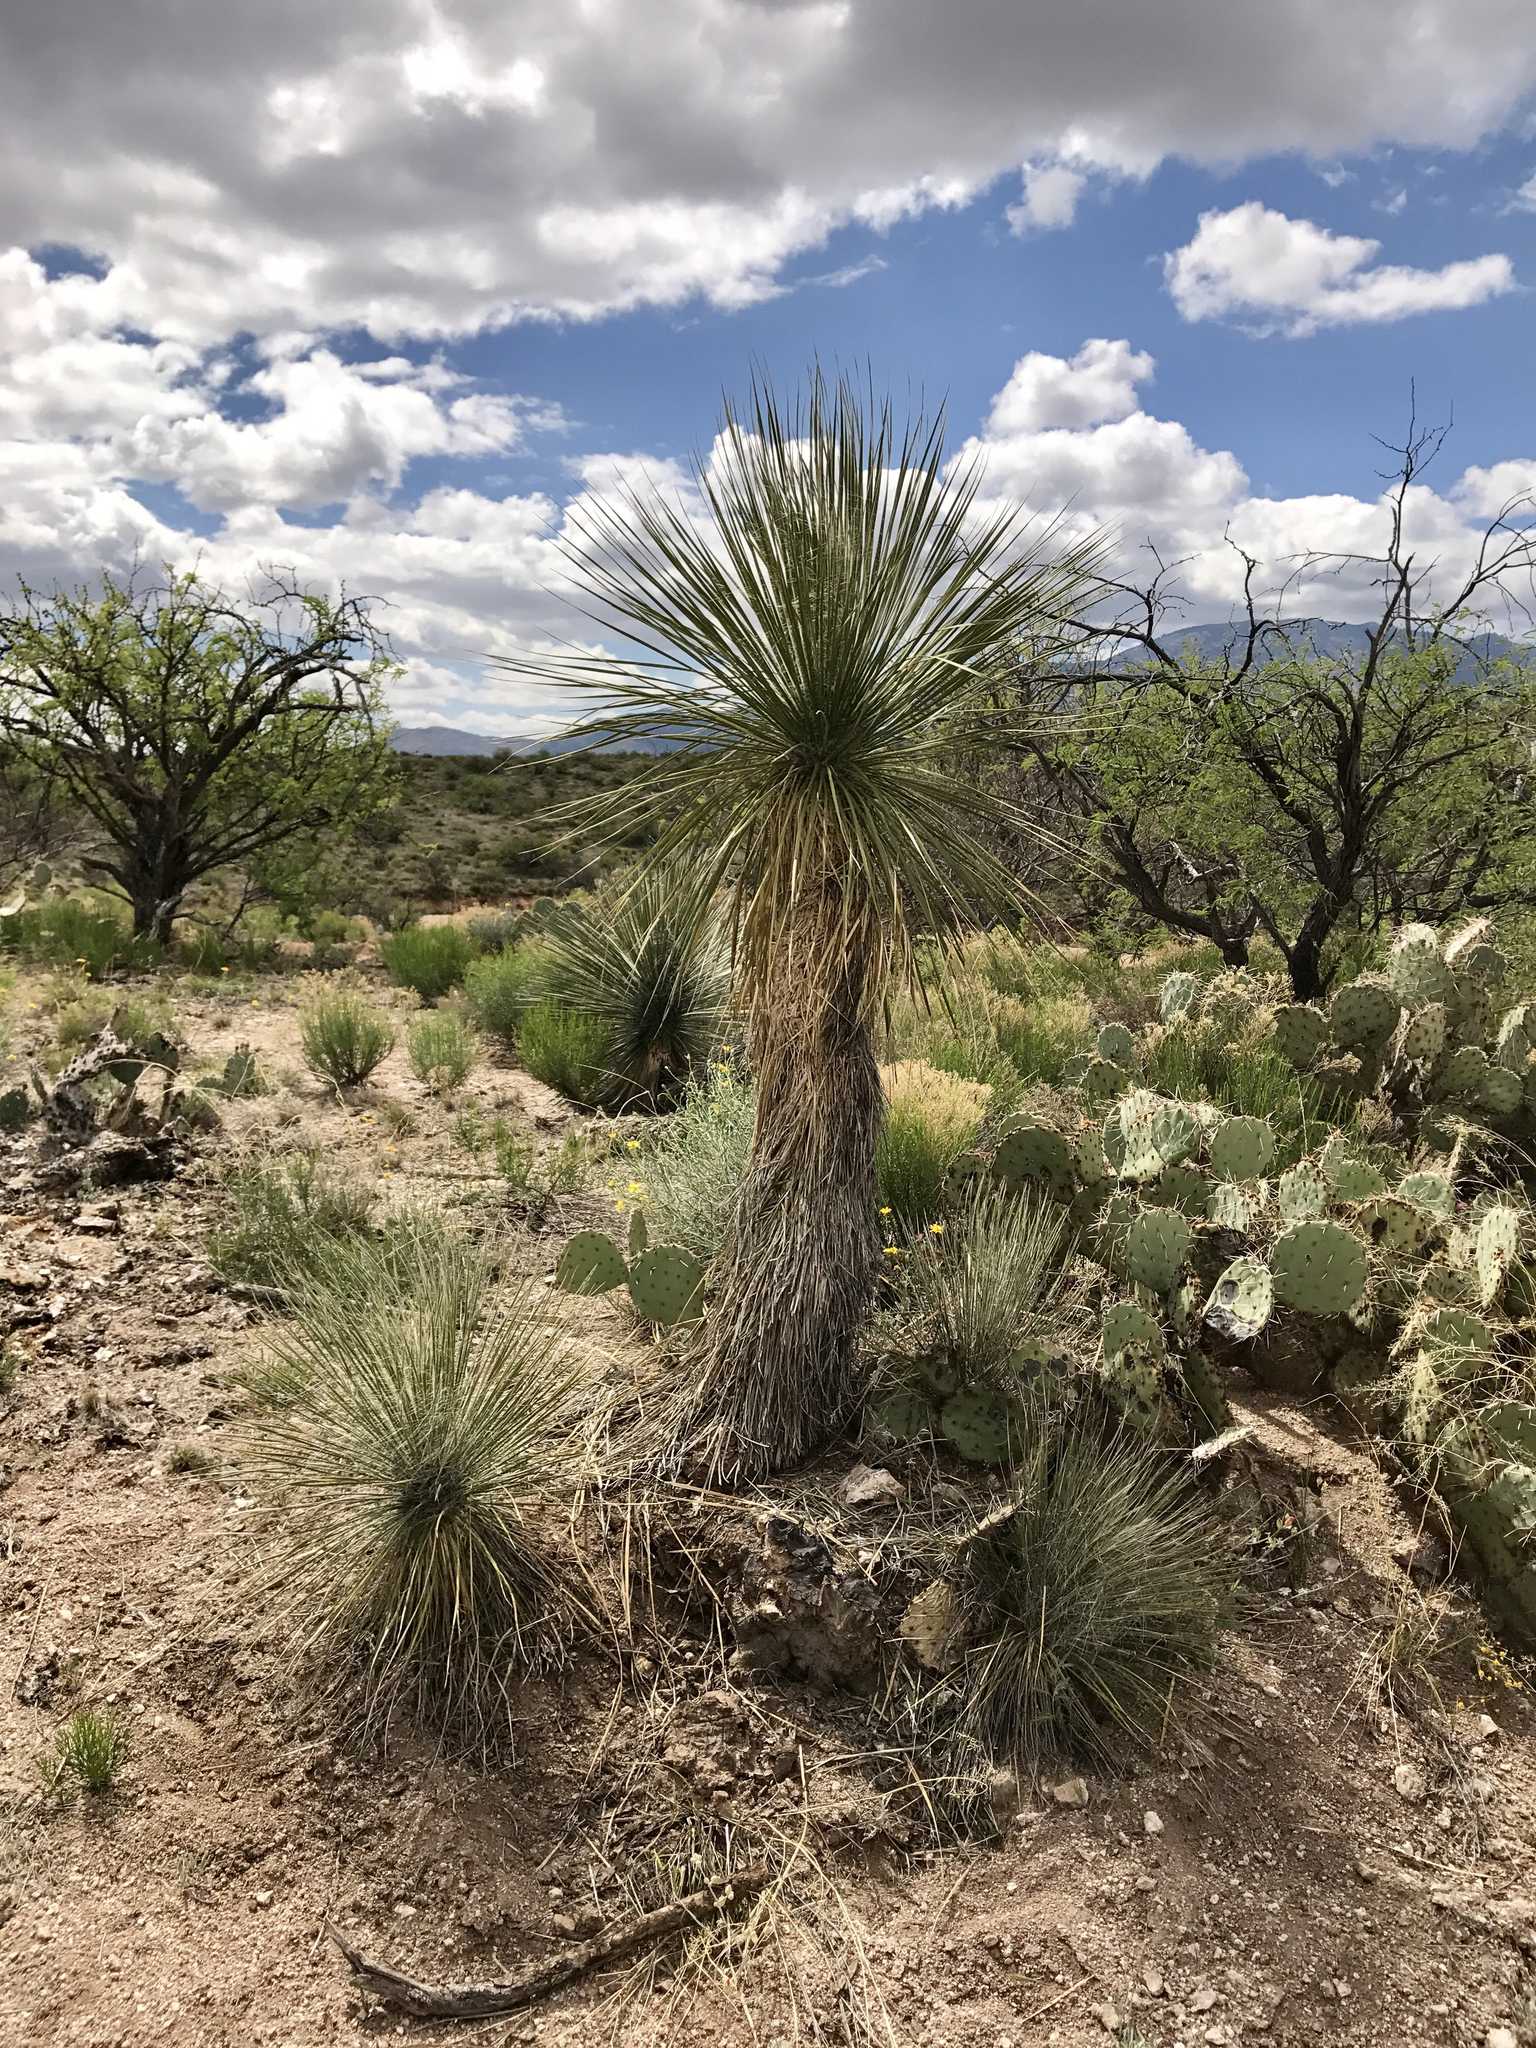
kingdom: Plantae
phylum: Tracheophyta
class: Liliopsida
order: Asparagales
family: Asparagaceae
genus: Yucca
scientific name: Yucca elata
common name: Palmella
